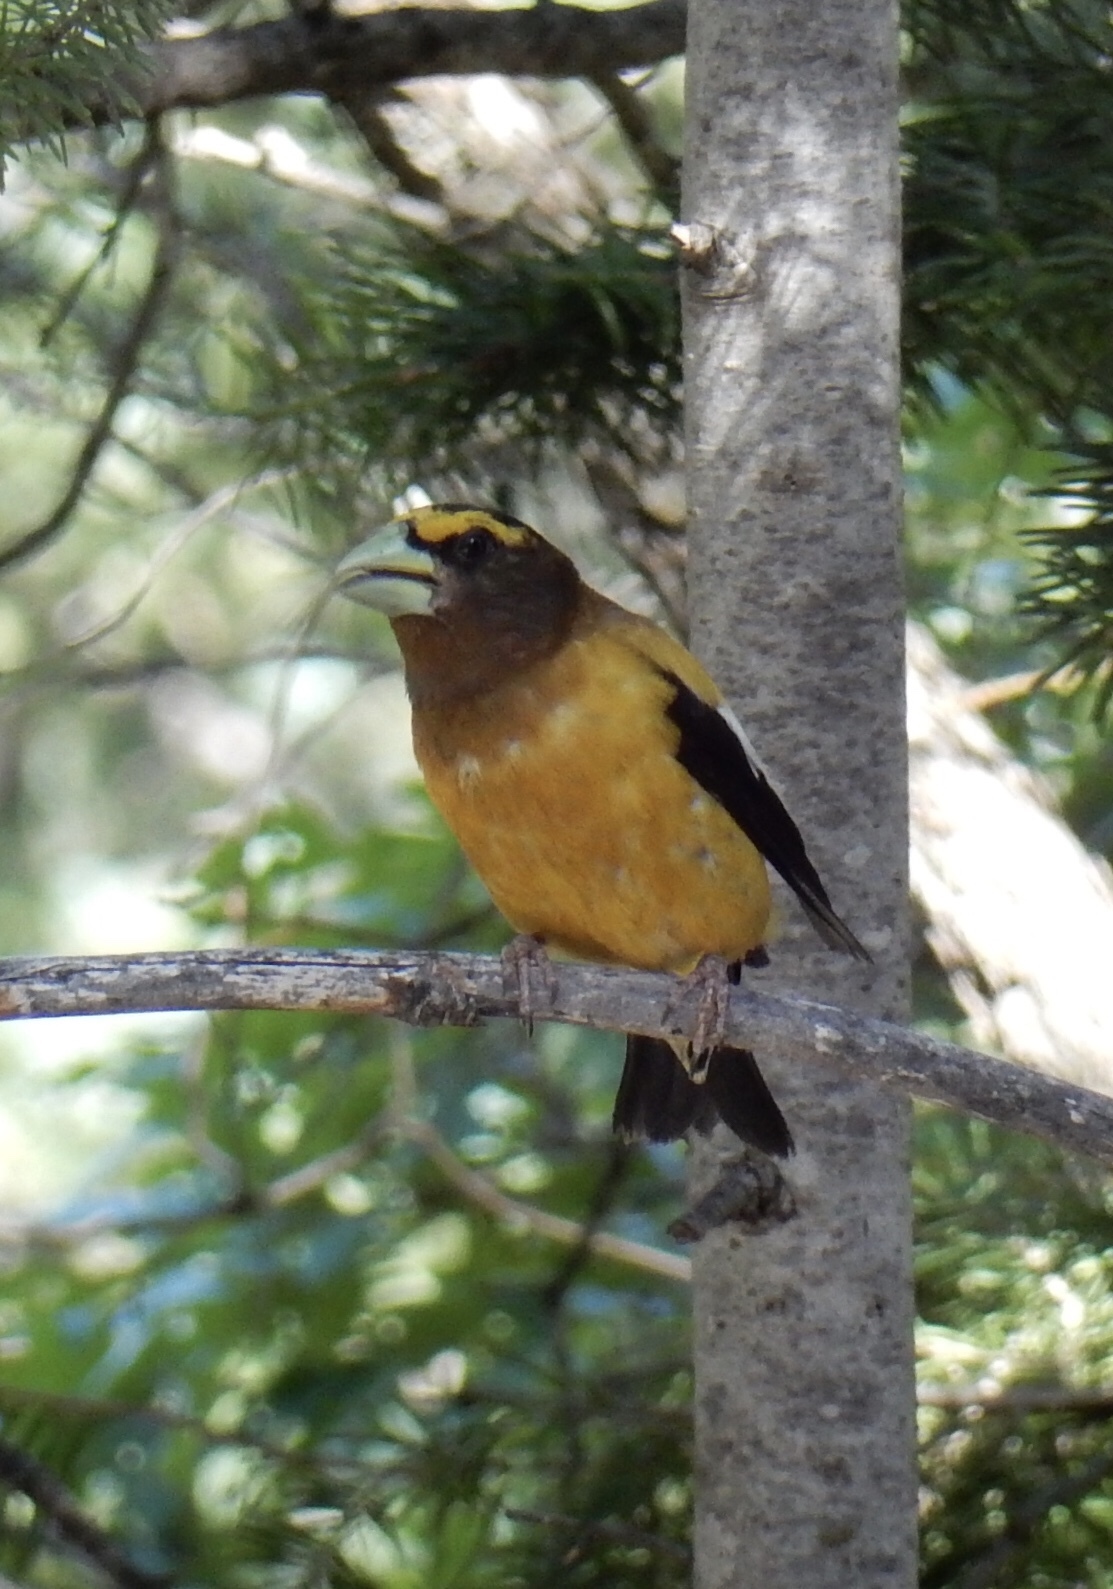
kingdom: Animalia
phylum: Chordata
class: Aves
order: Passeriformes
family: Fringillidae
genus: Hesperiphona
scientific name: Hesperiphona vespertina
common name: Evening grosbeak
